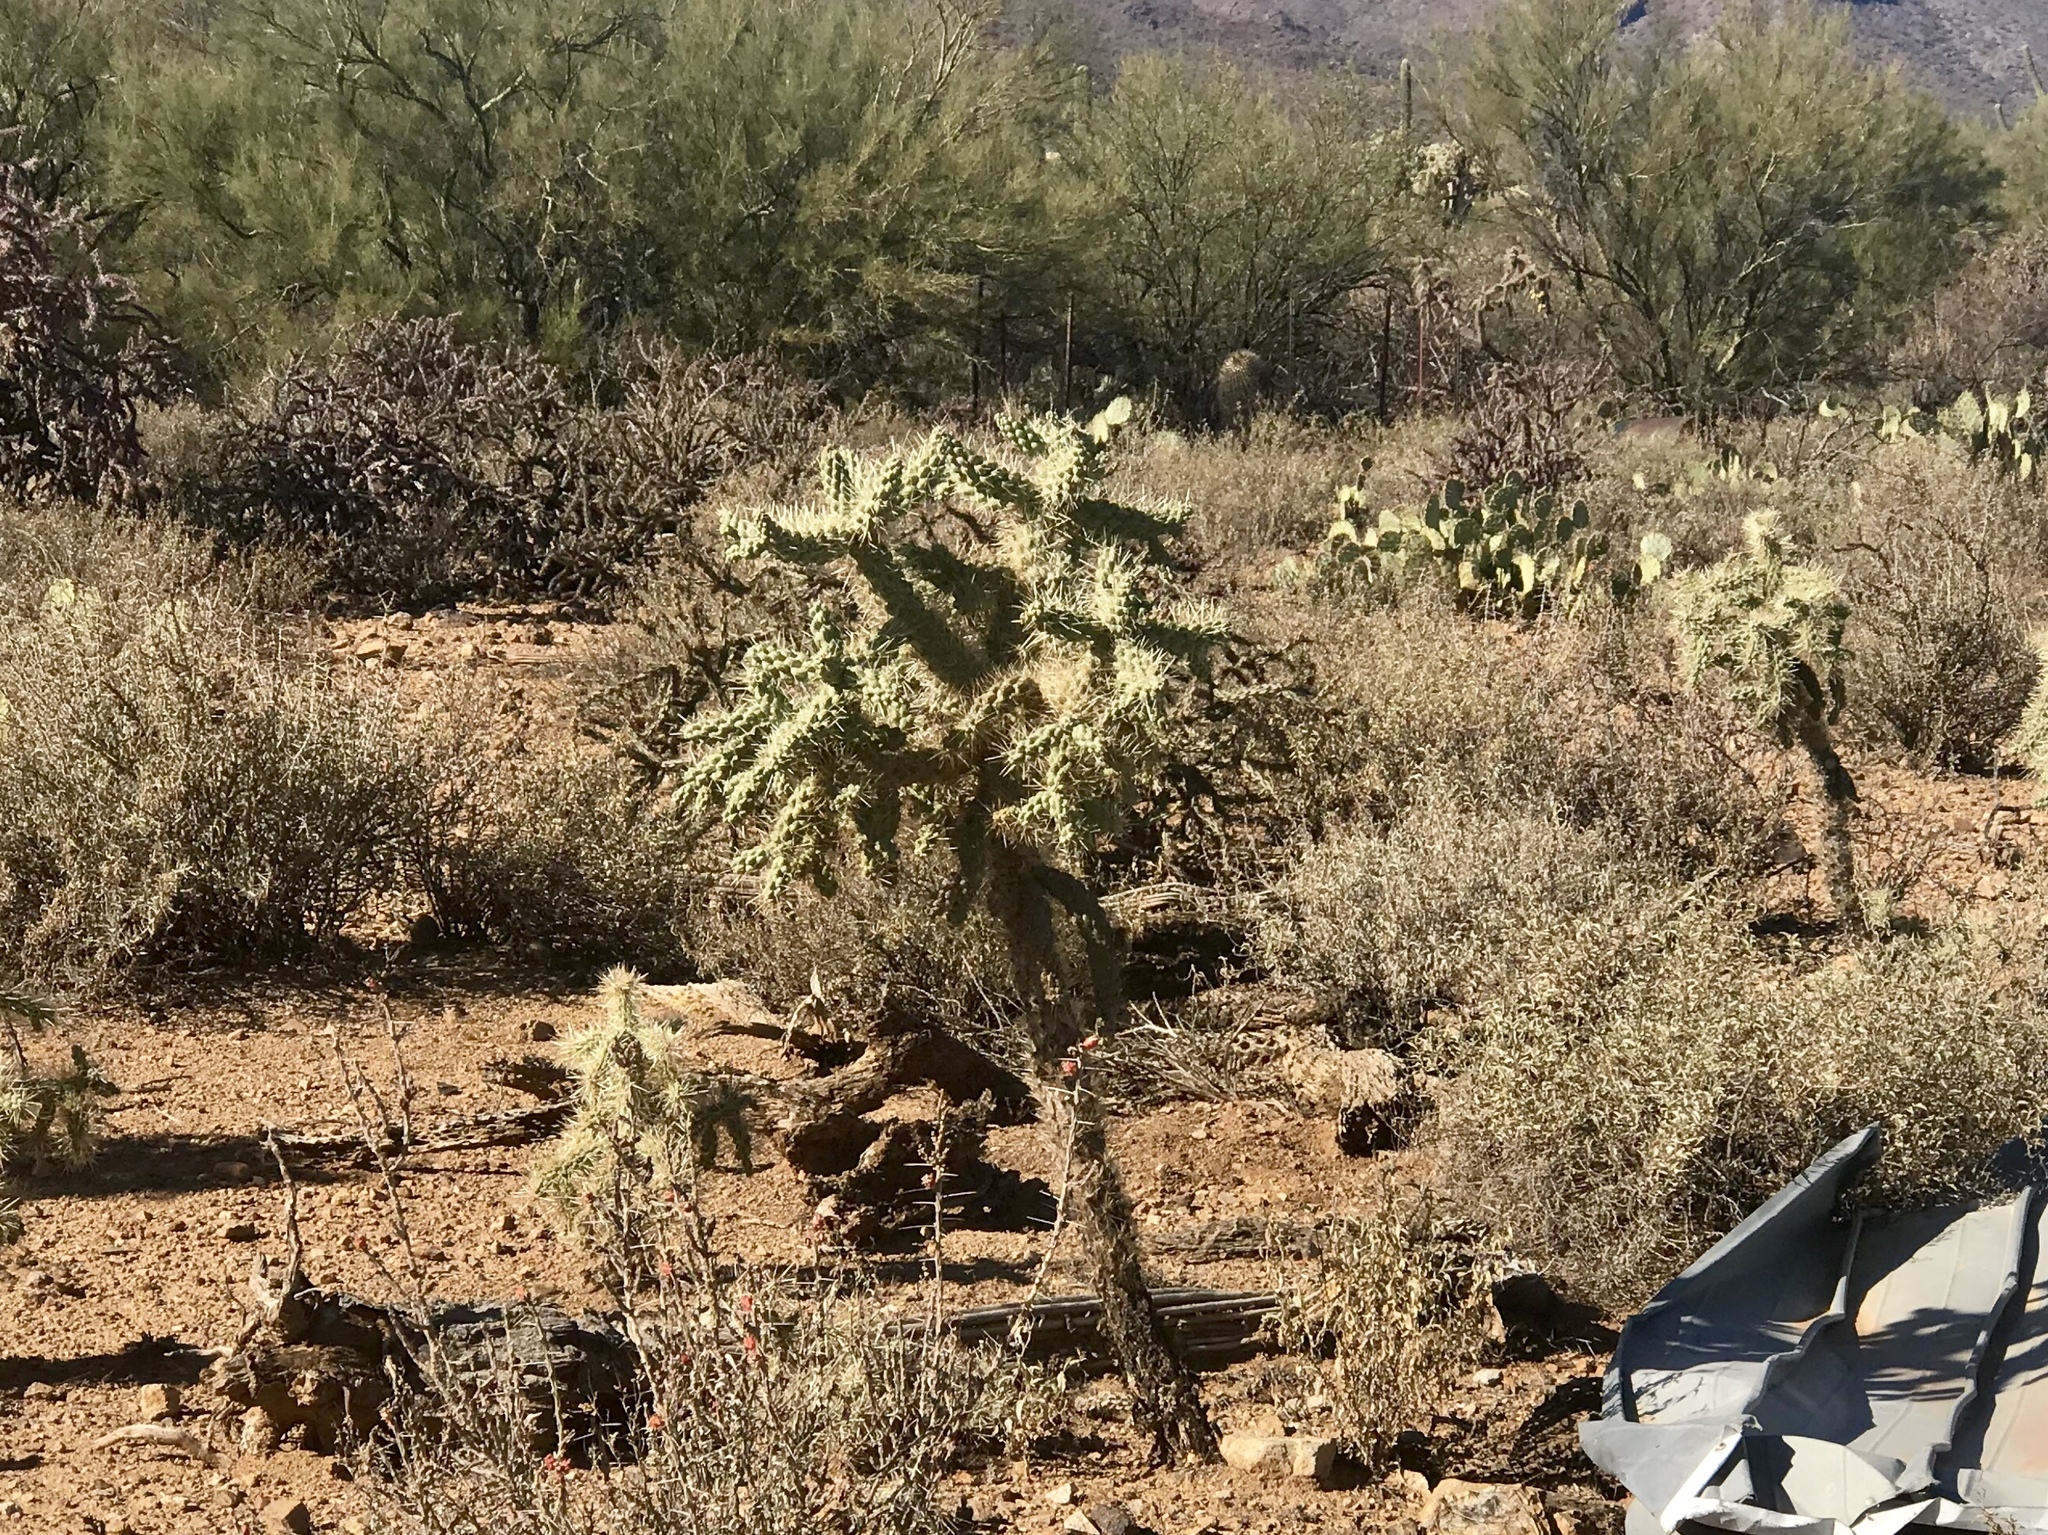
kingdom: Plantae
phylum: Tracheophyta
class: Magnoliopsida
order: Caryophyllales
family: Cactaceae
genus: Cylindropuntia
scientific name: Cylindropuntia fulgida
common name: Jumping cholla
